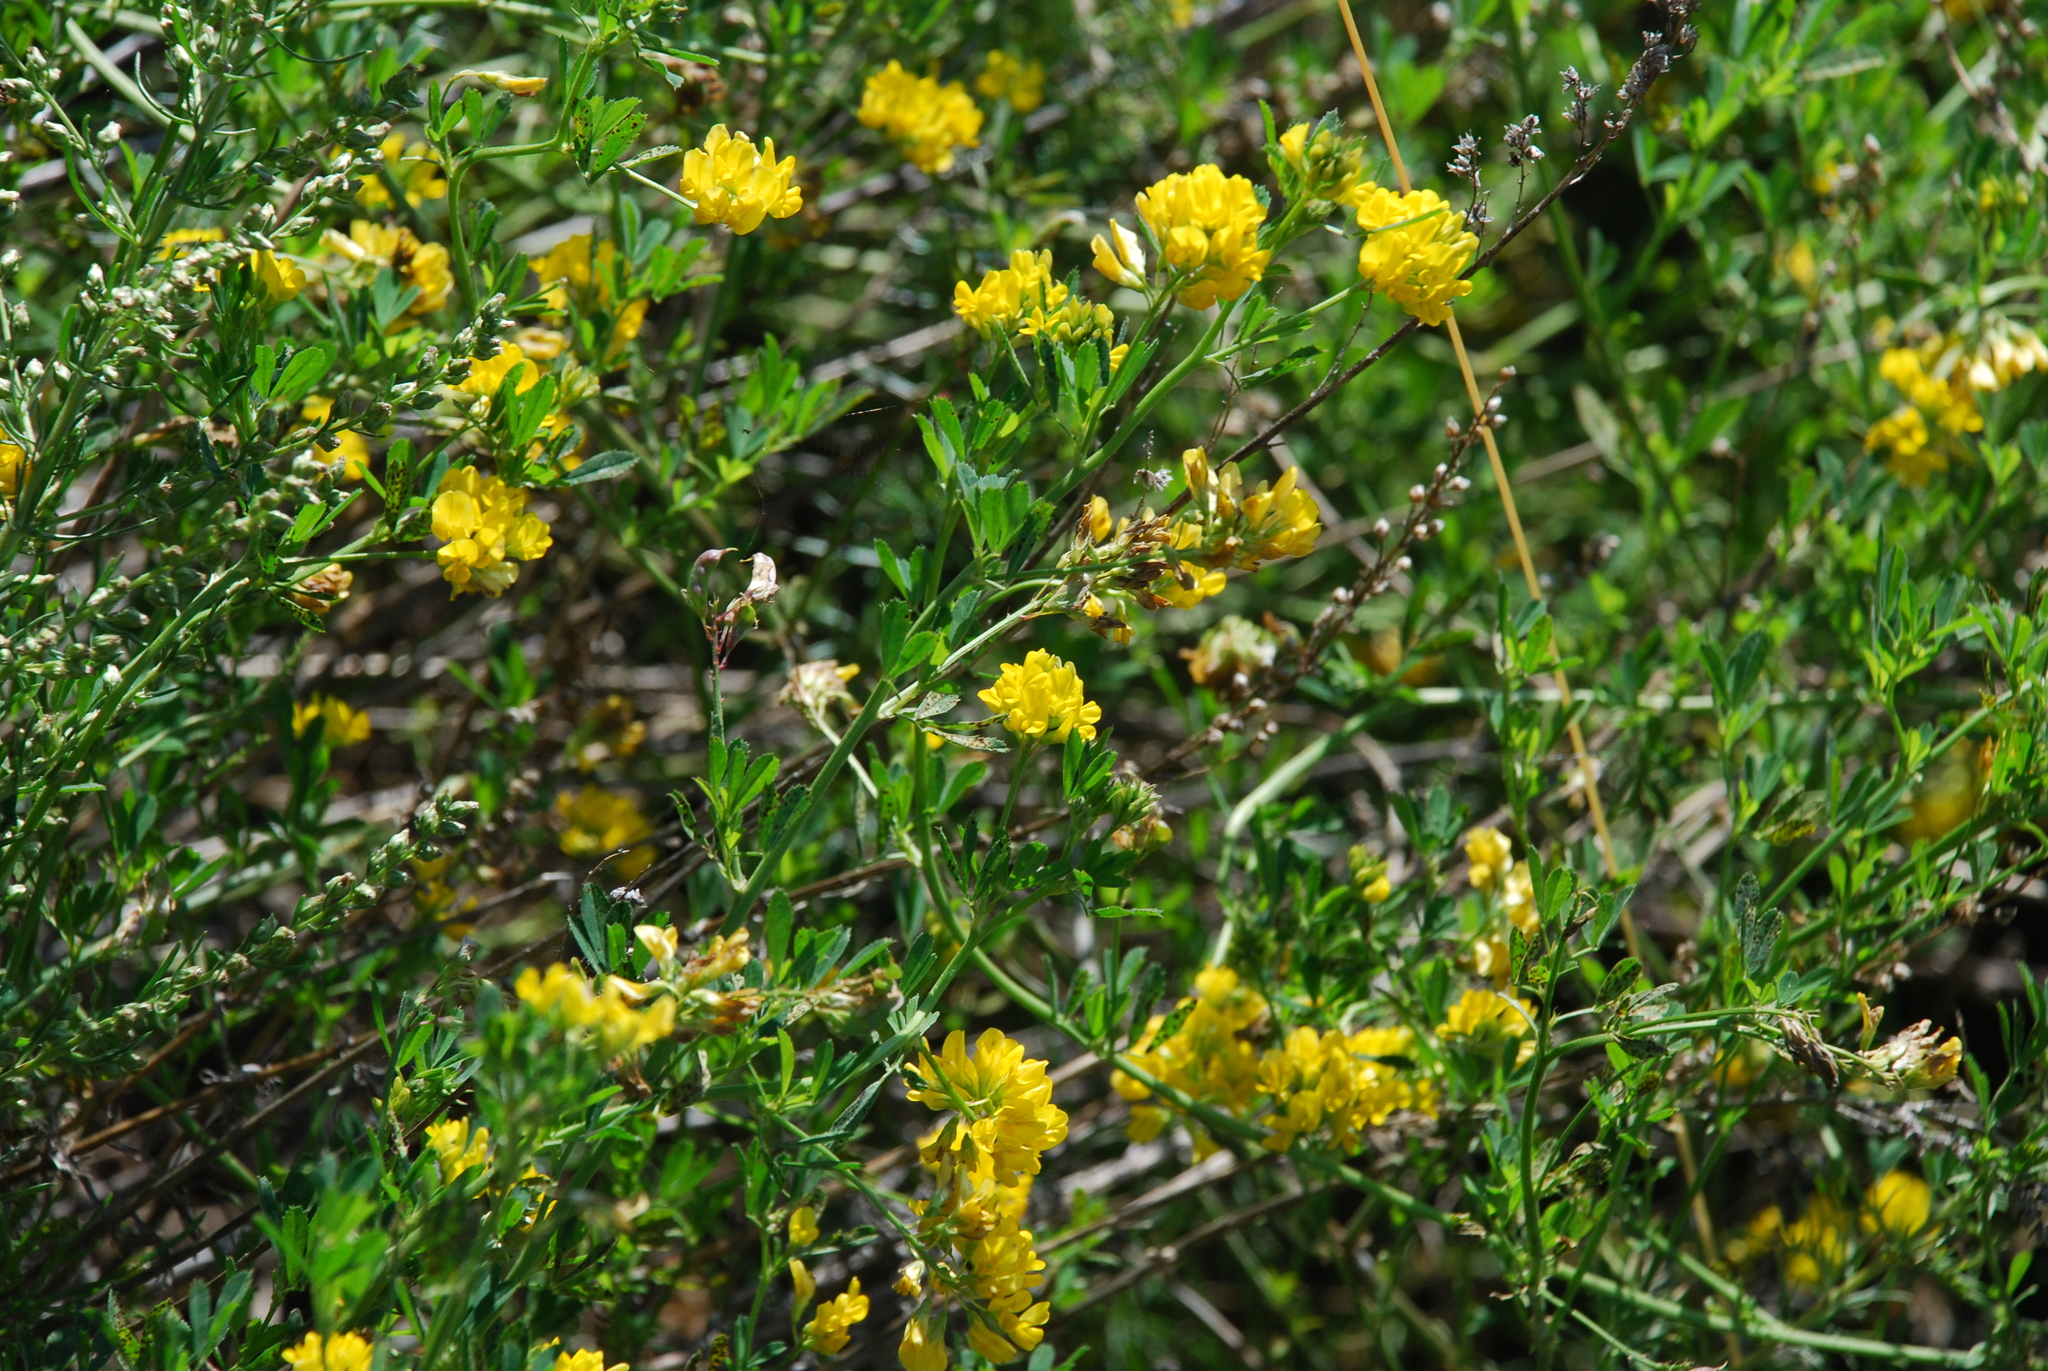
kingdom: Plantae
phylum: Tracheophyta
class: Magnoliopsida
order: Fabales
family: Fabaceae
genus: Medicago
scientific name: Medicago falcata
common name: Sickle medick
